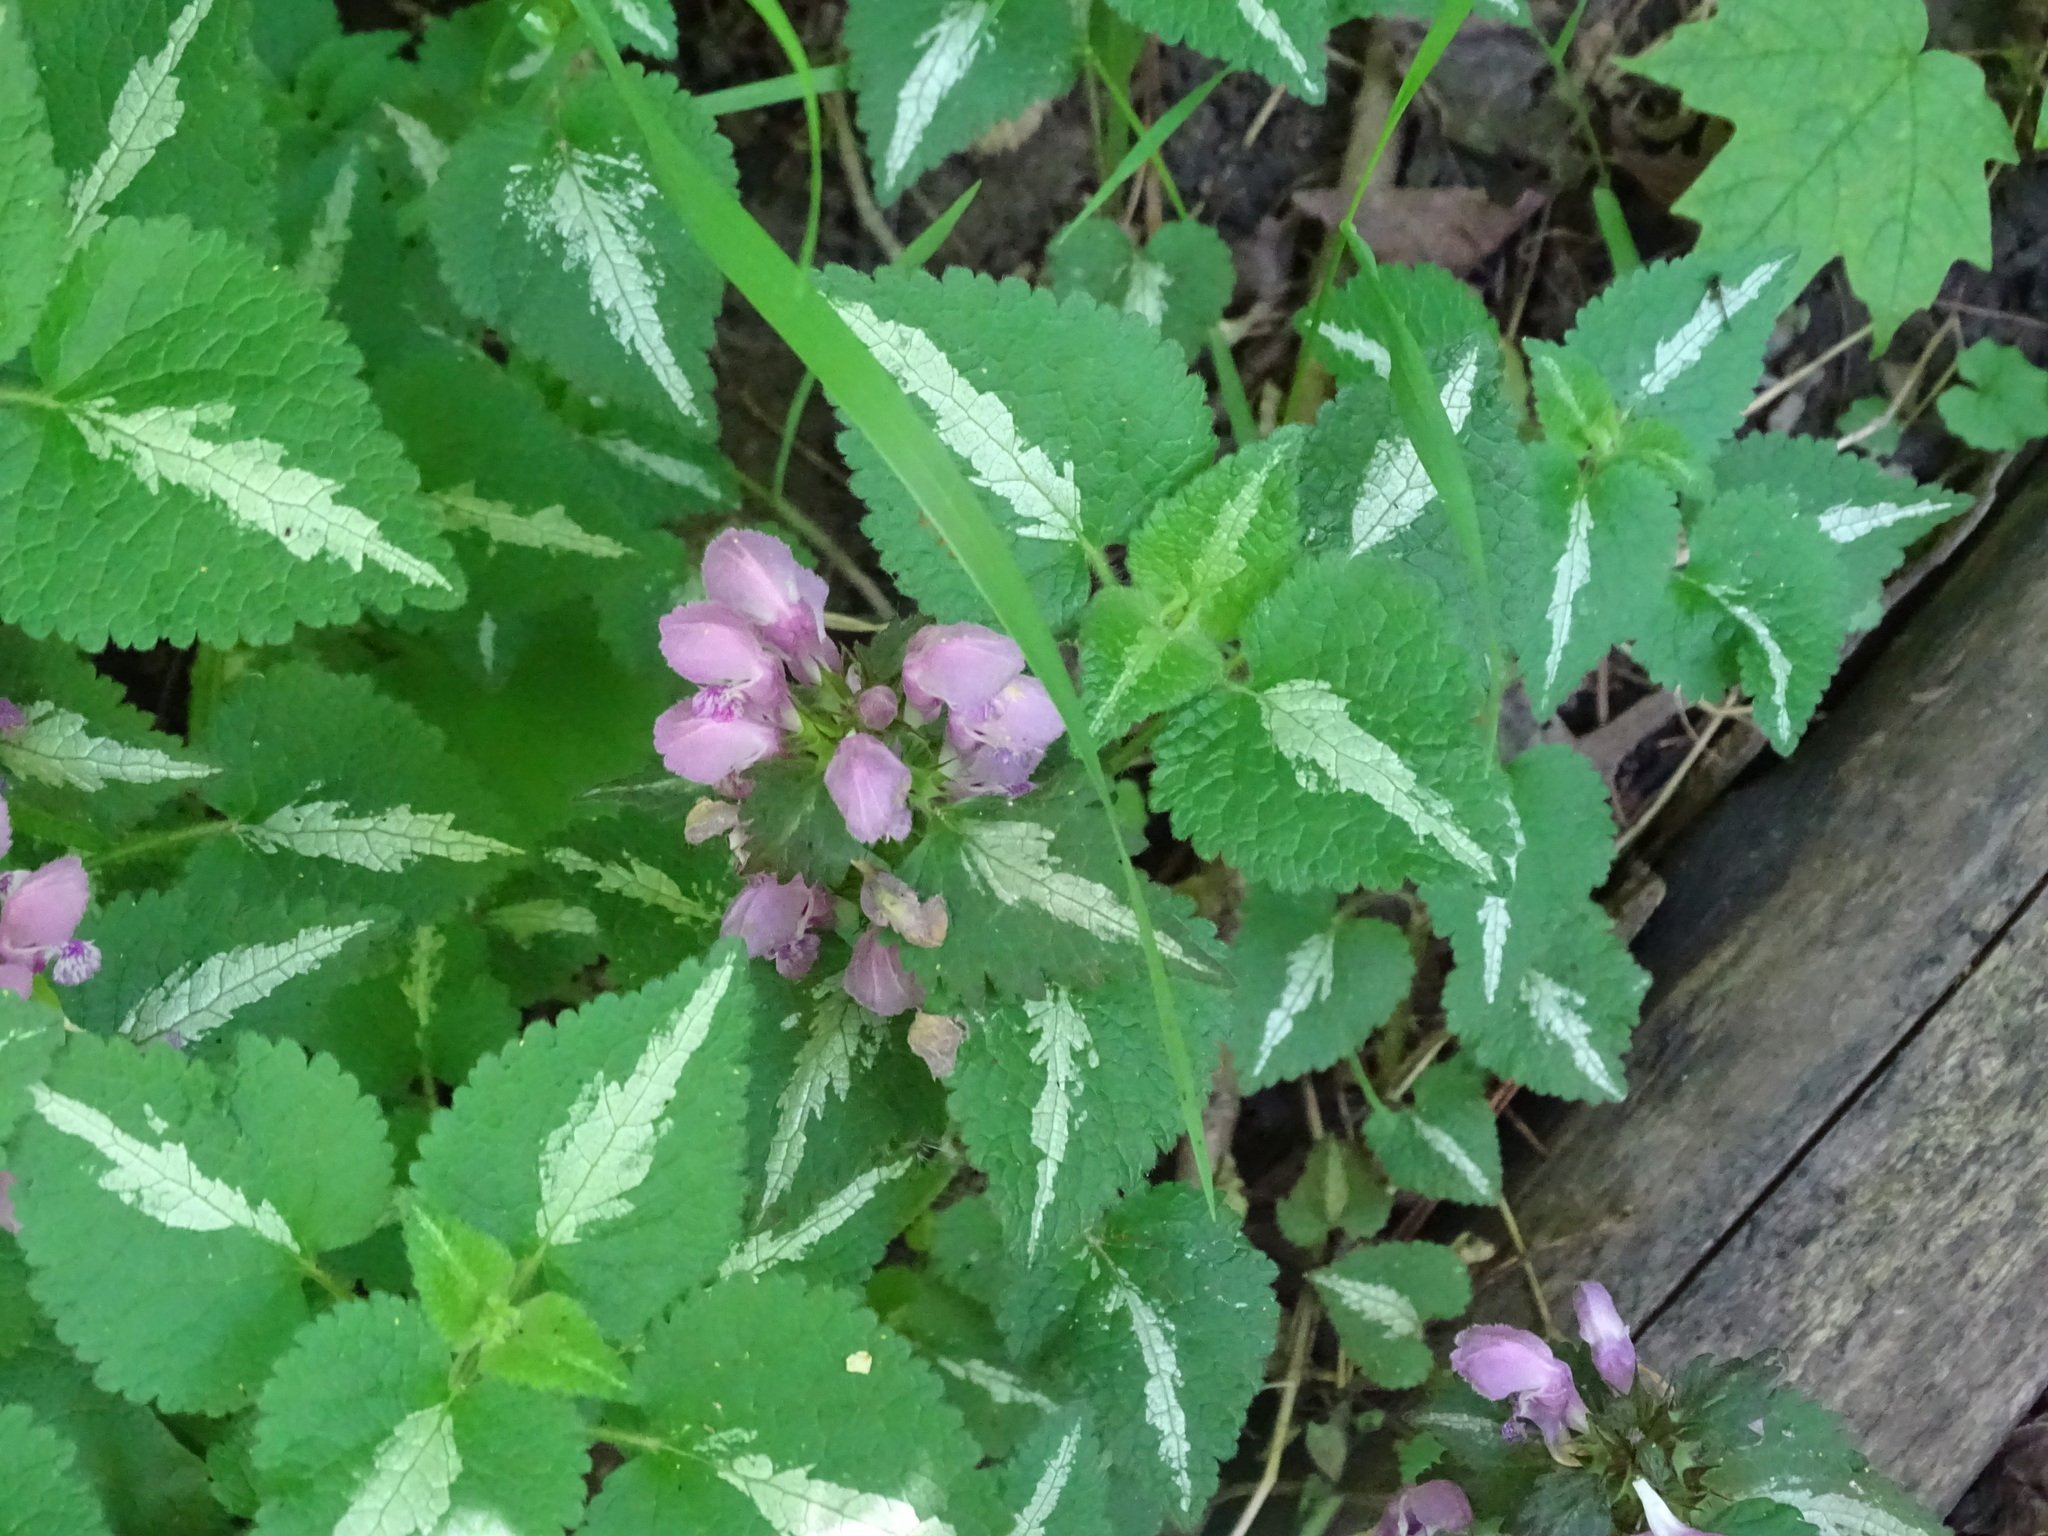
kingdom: Plantae
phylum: Tracheophyta
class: Magnoliopsida
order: Lamiales
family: Lamiaceae
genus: Lamium
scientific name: Lamium maculatum
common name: Spotted dead-nettle
